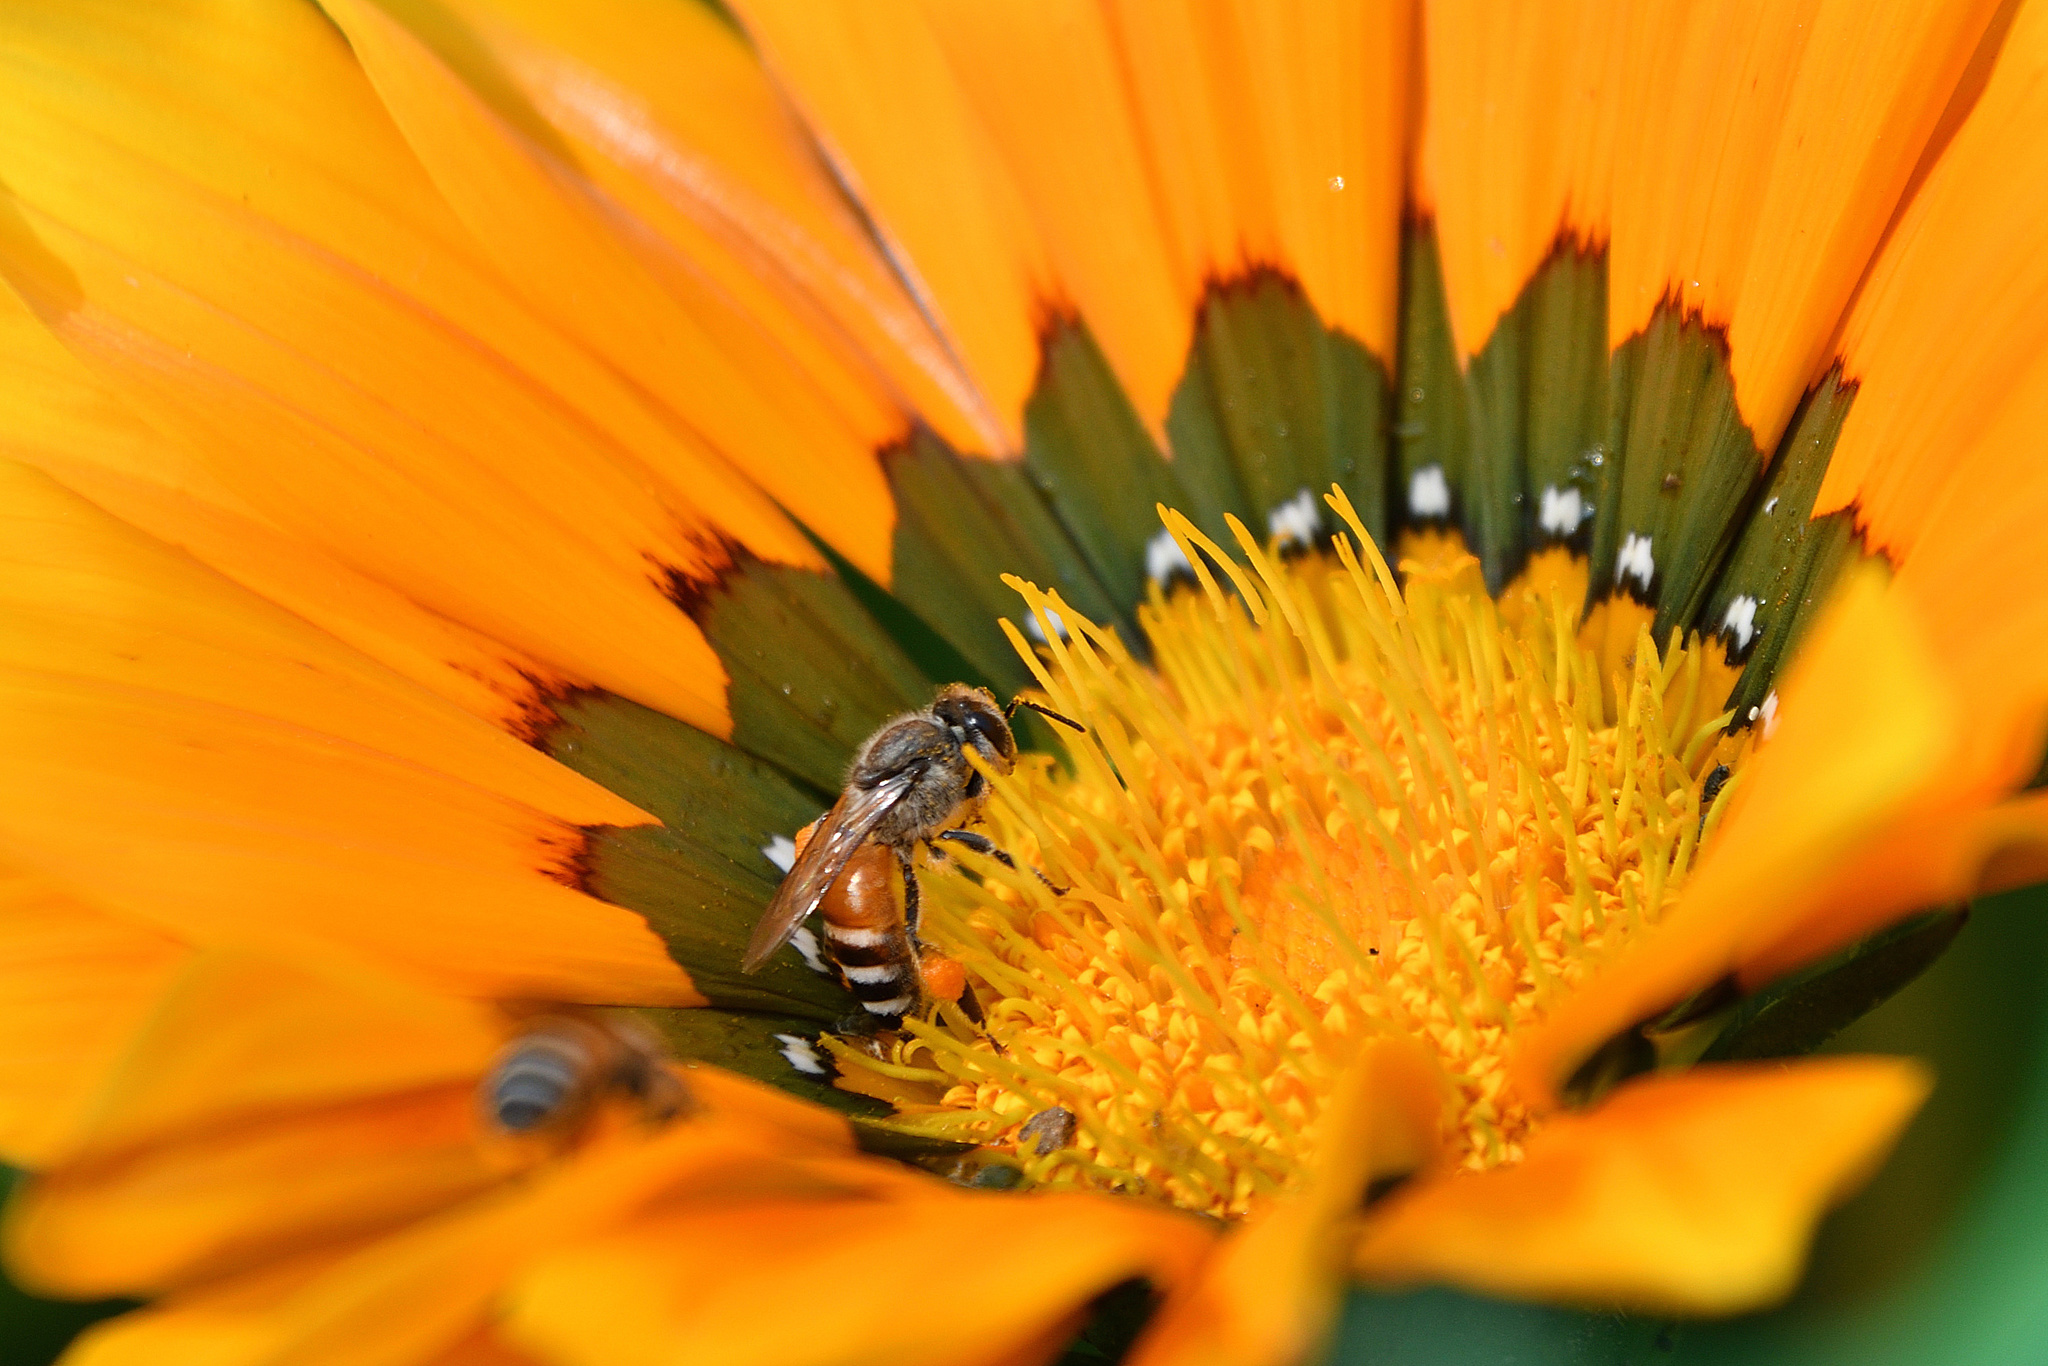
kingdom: Animalia
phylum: Arthropoda
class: Insecta
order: Hymenoptera
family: Apidae
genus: Apis
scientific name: Apis florea
